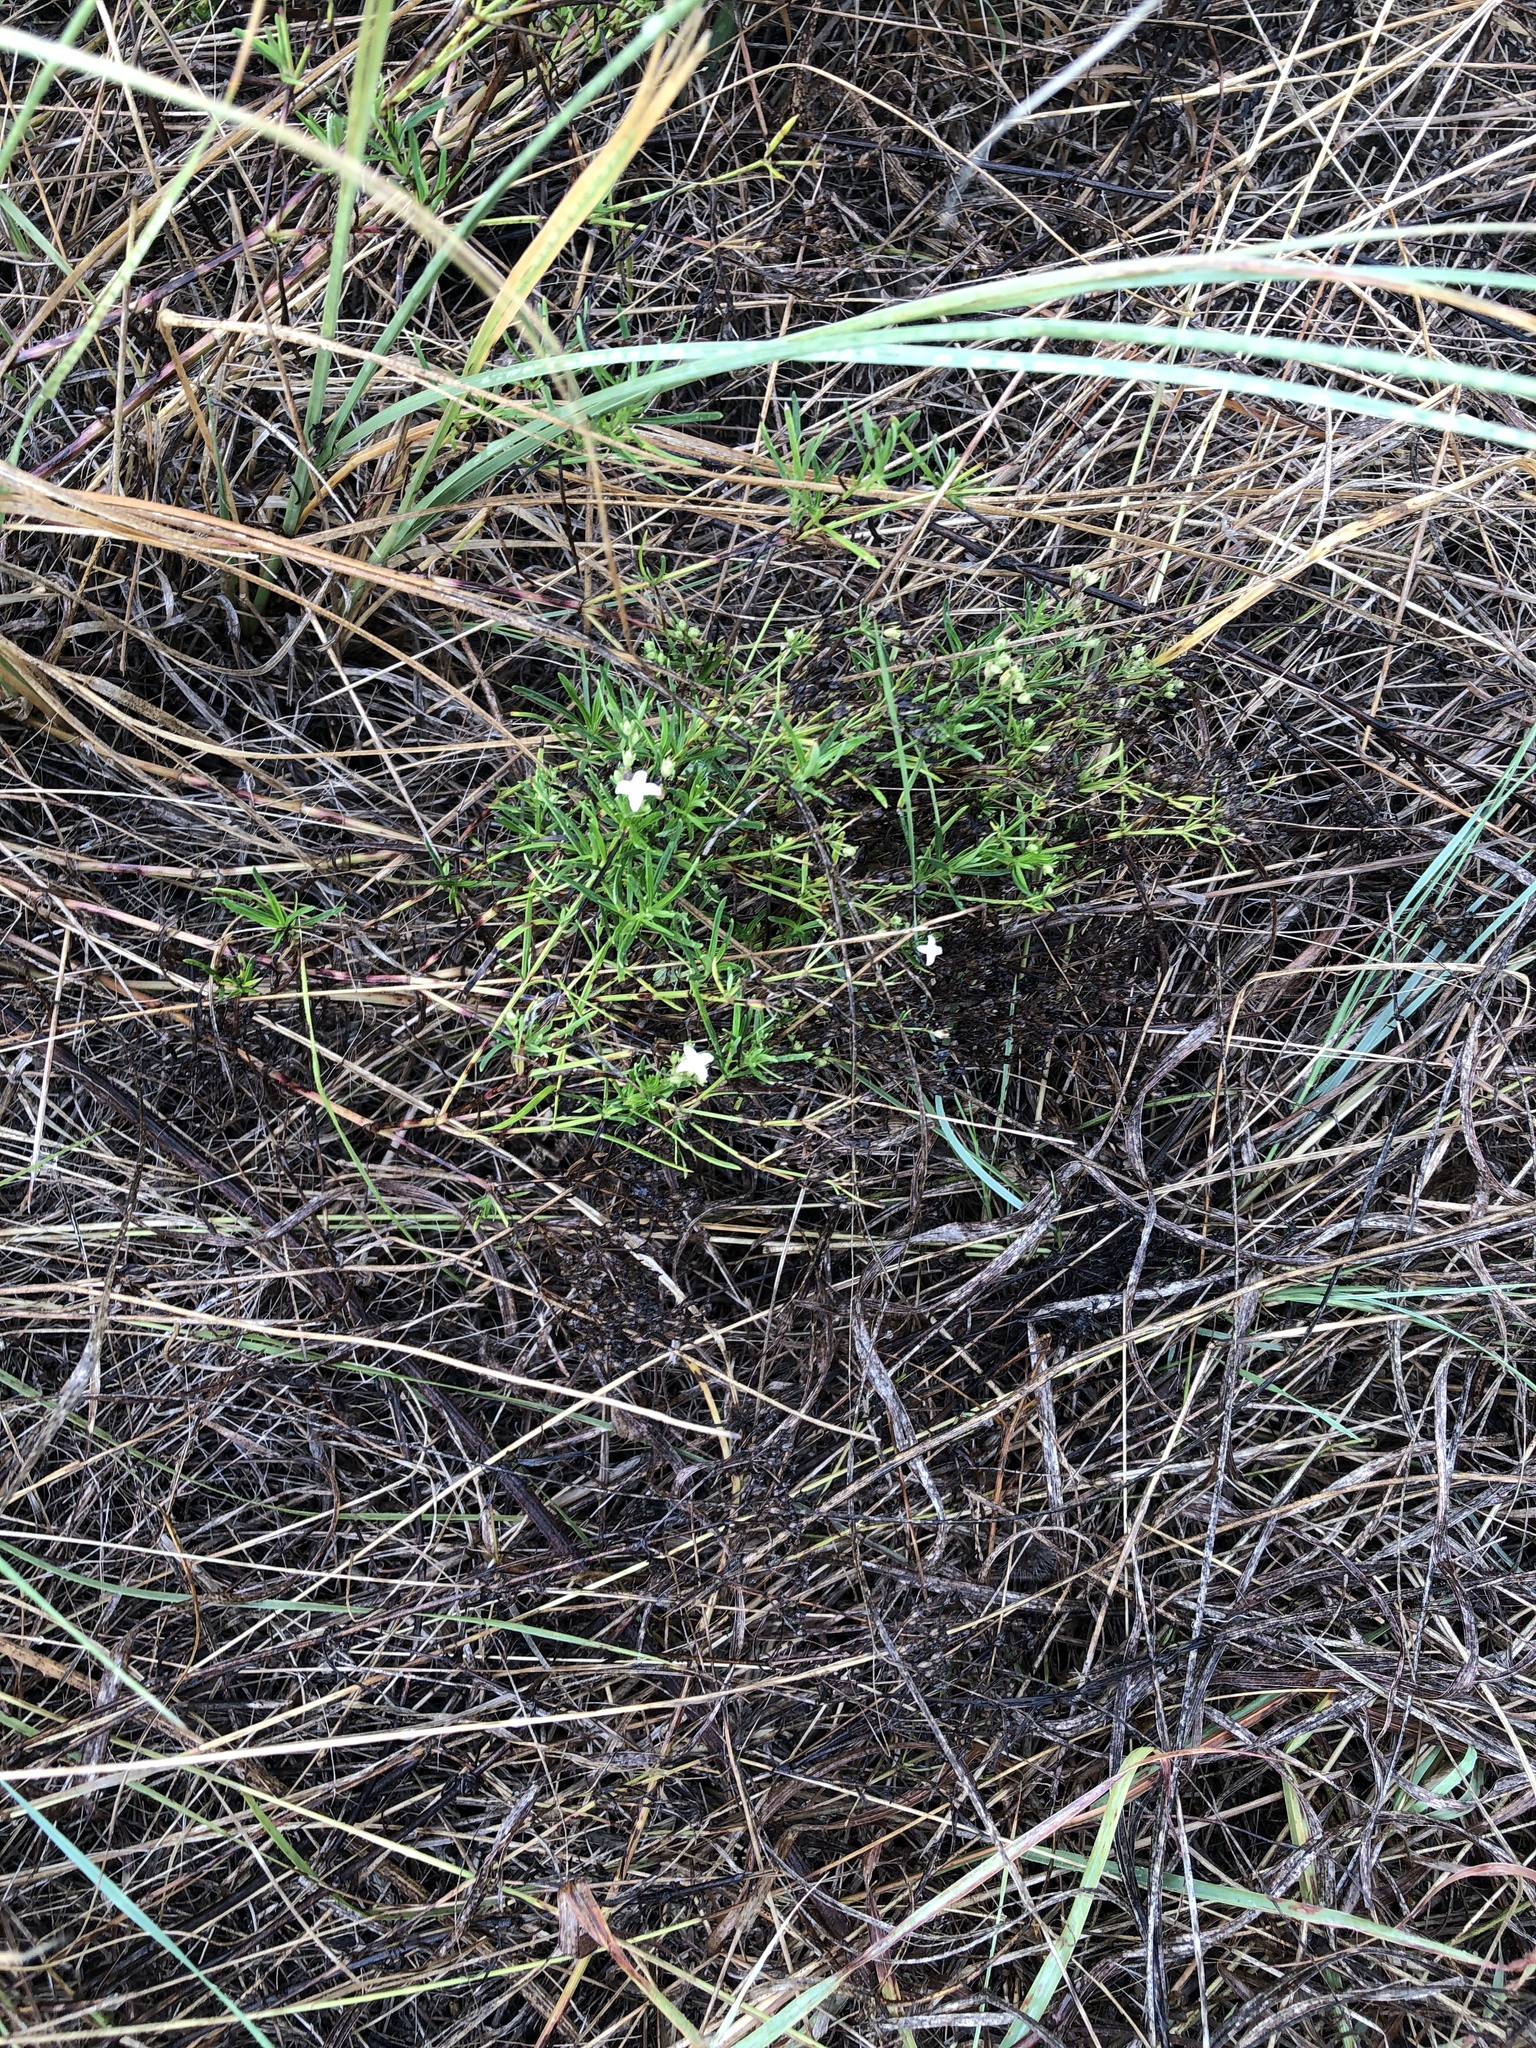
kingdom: Plantae
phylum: Tracheophyta
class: Magnoliopsida
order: Gentianales
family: Rubiaceae
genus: Stenaria
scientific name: Stenaria nigricans
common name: Diamondflowers
